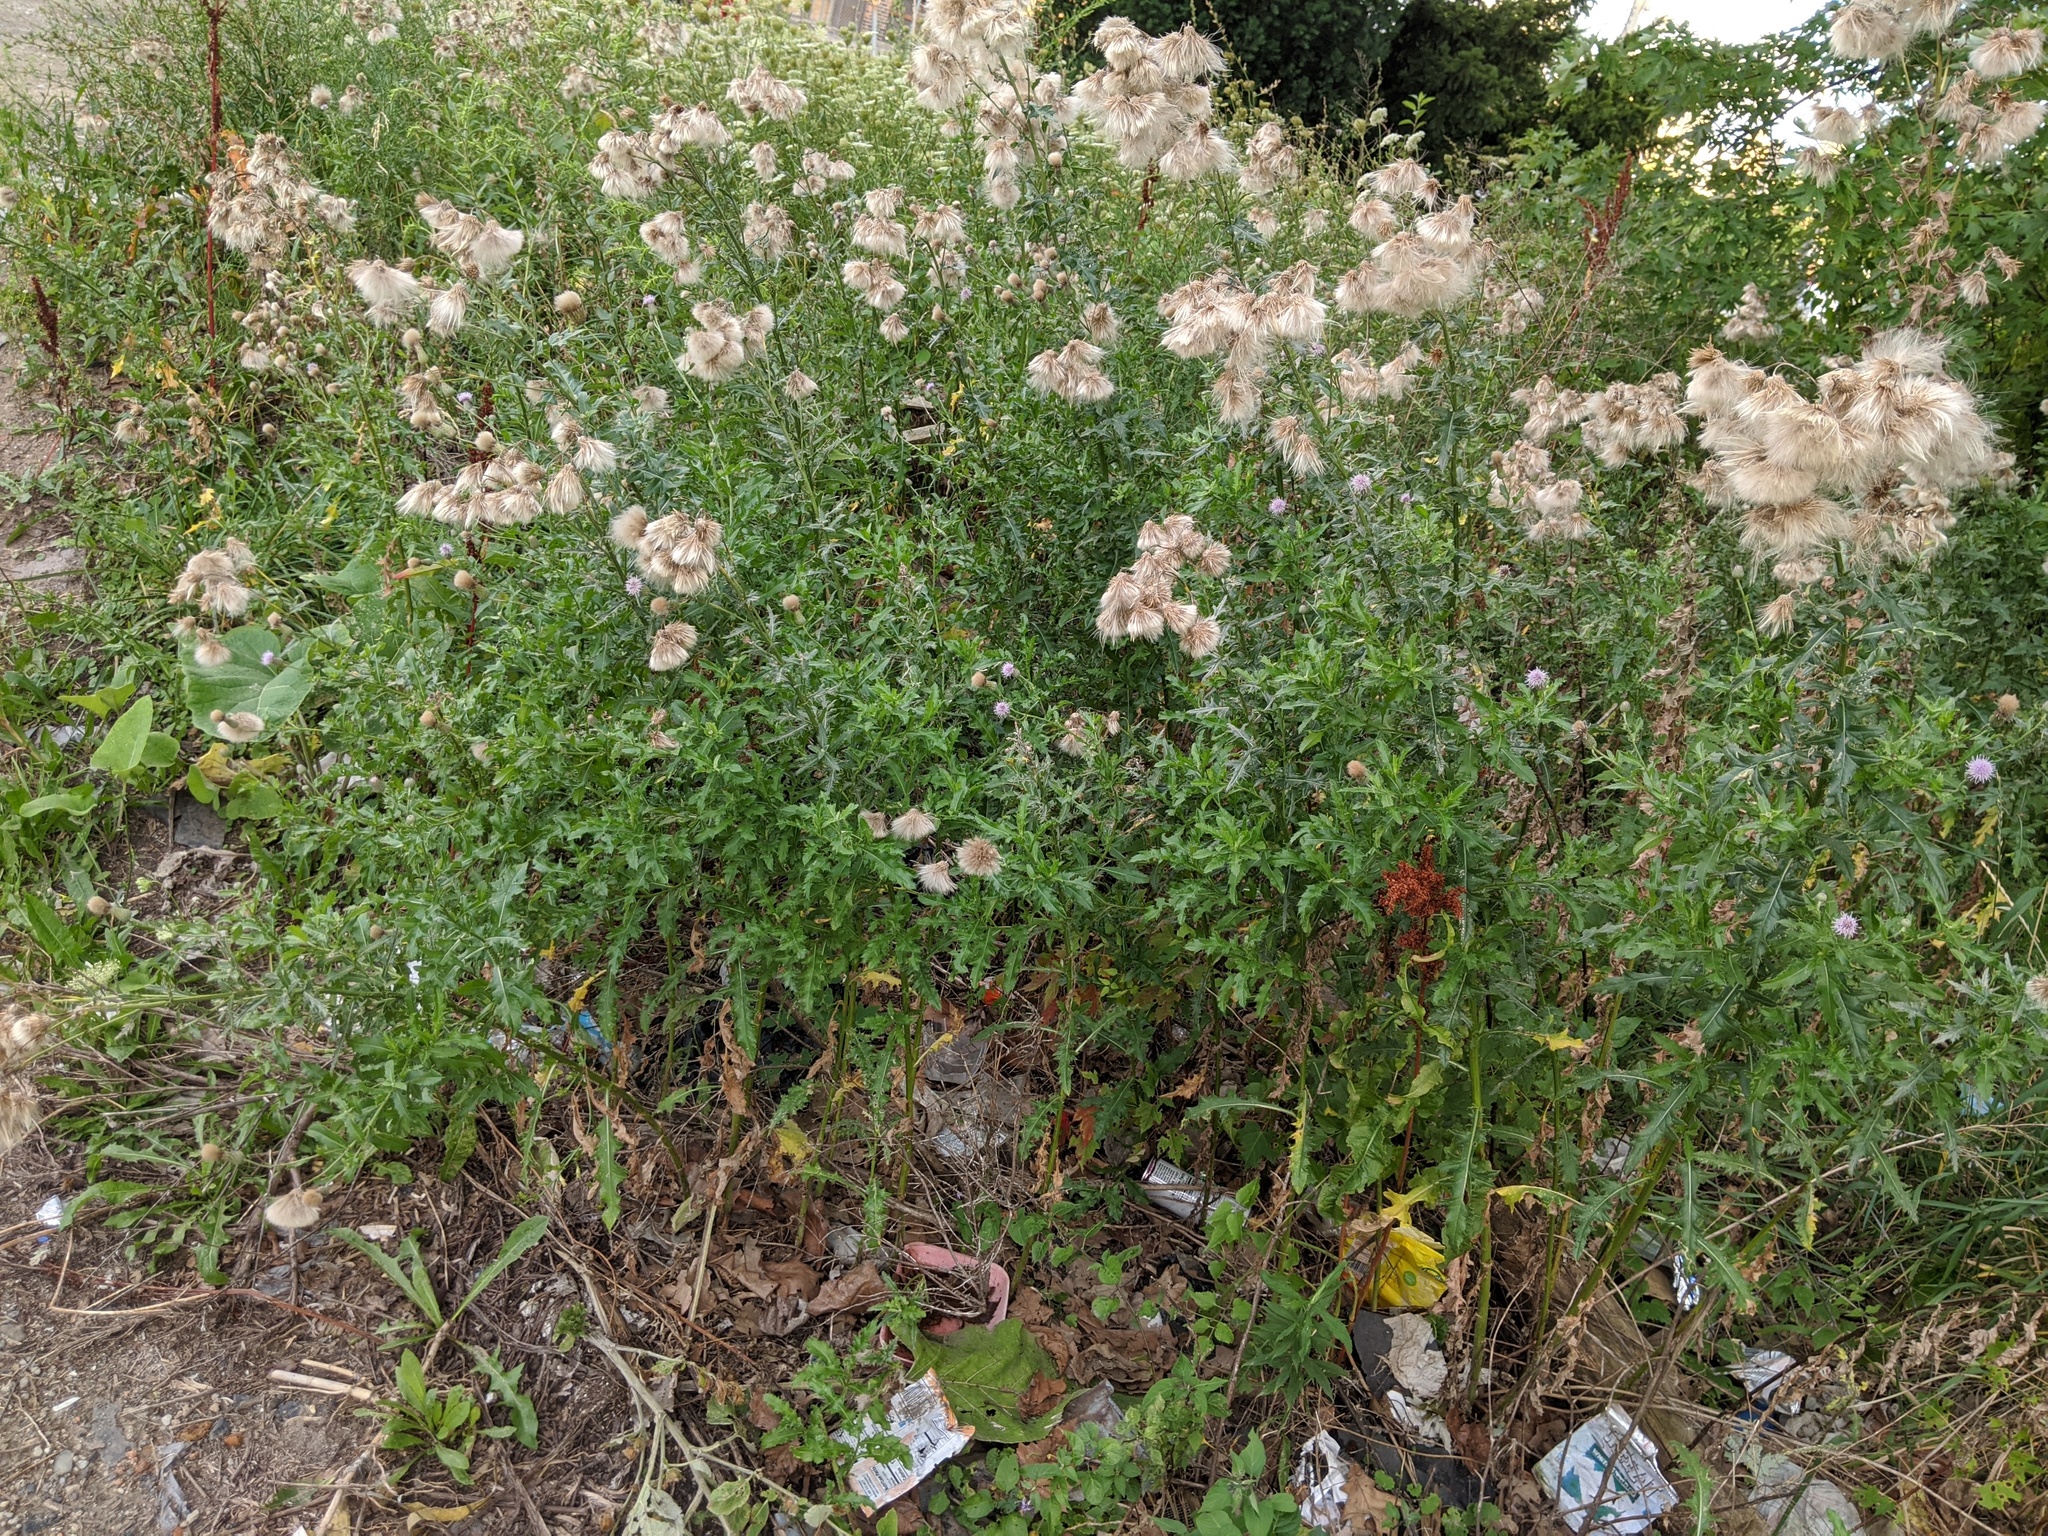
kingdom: Plantae
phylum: Tracheophyta
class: Magnoliopsida
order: Asterales
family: Asteraceae
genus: Cirsium
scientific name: Cirsium arvense
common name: Creeping thistle
